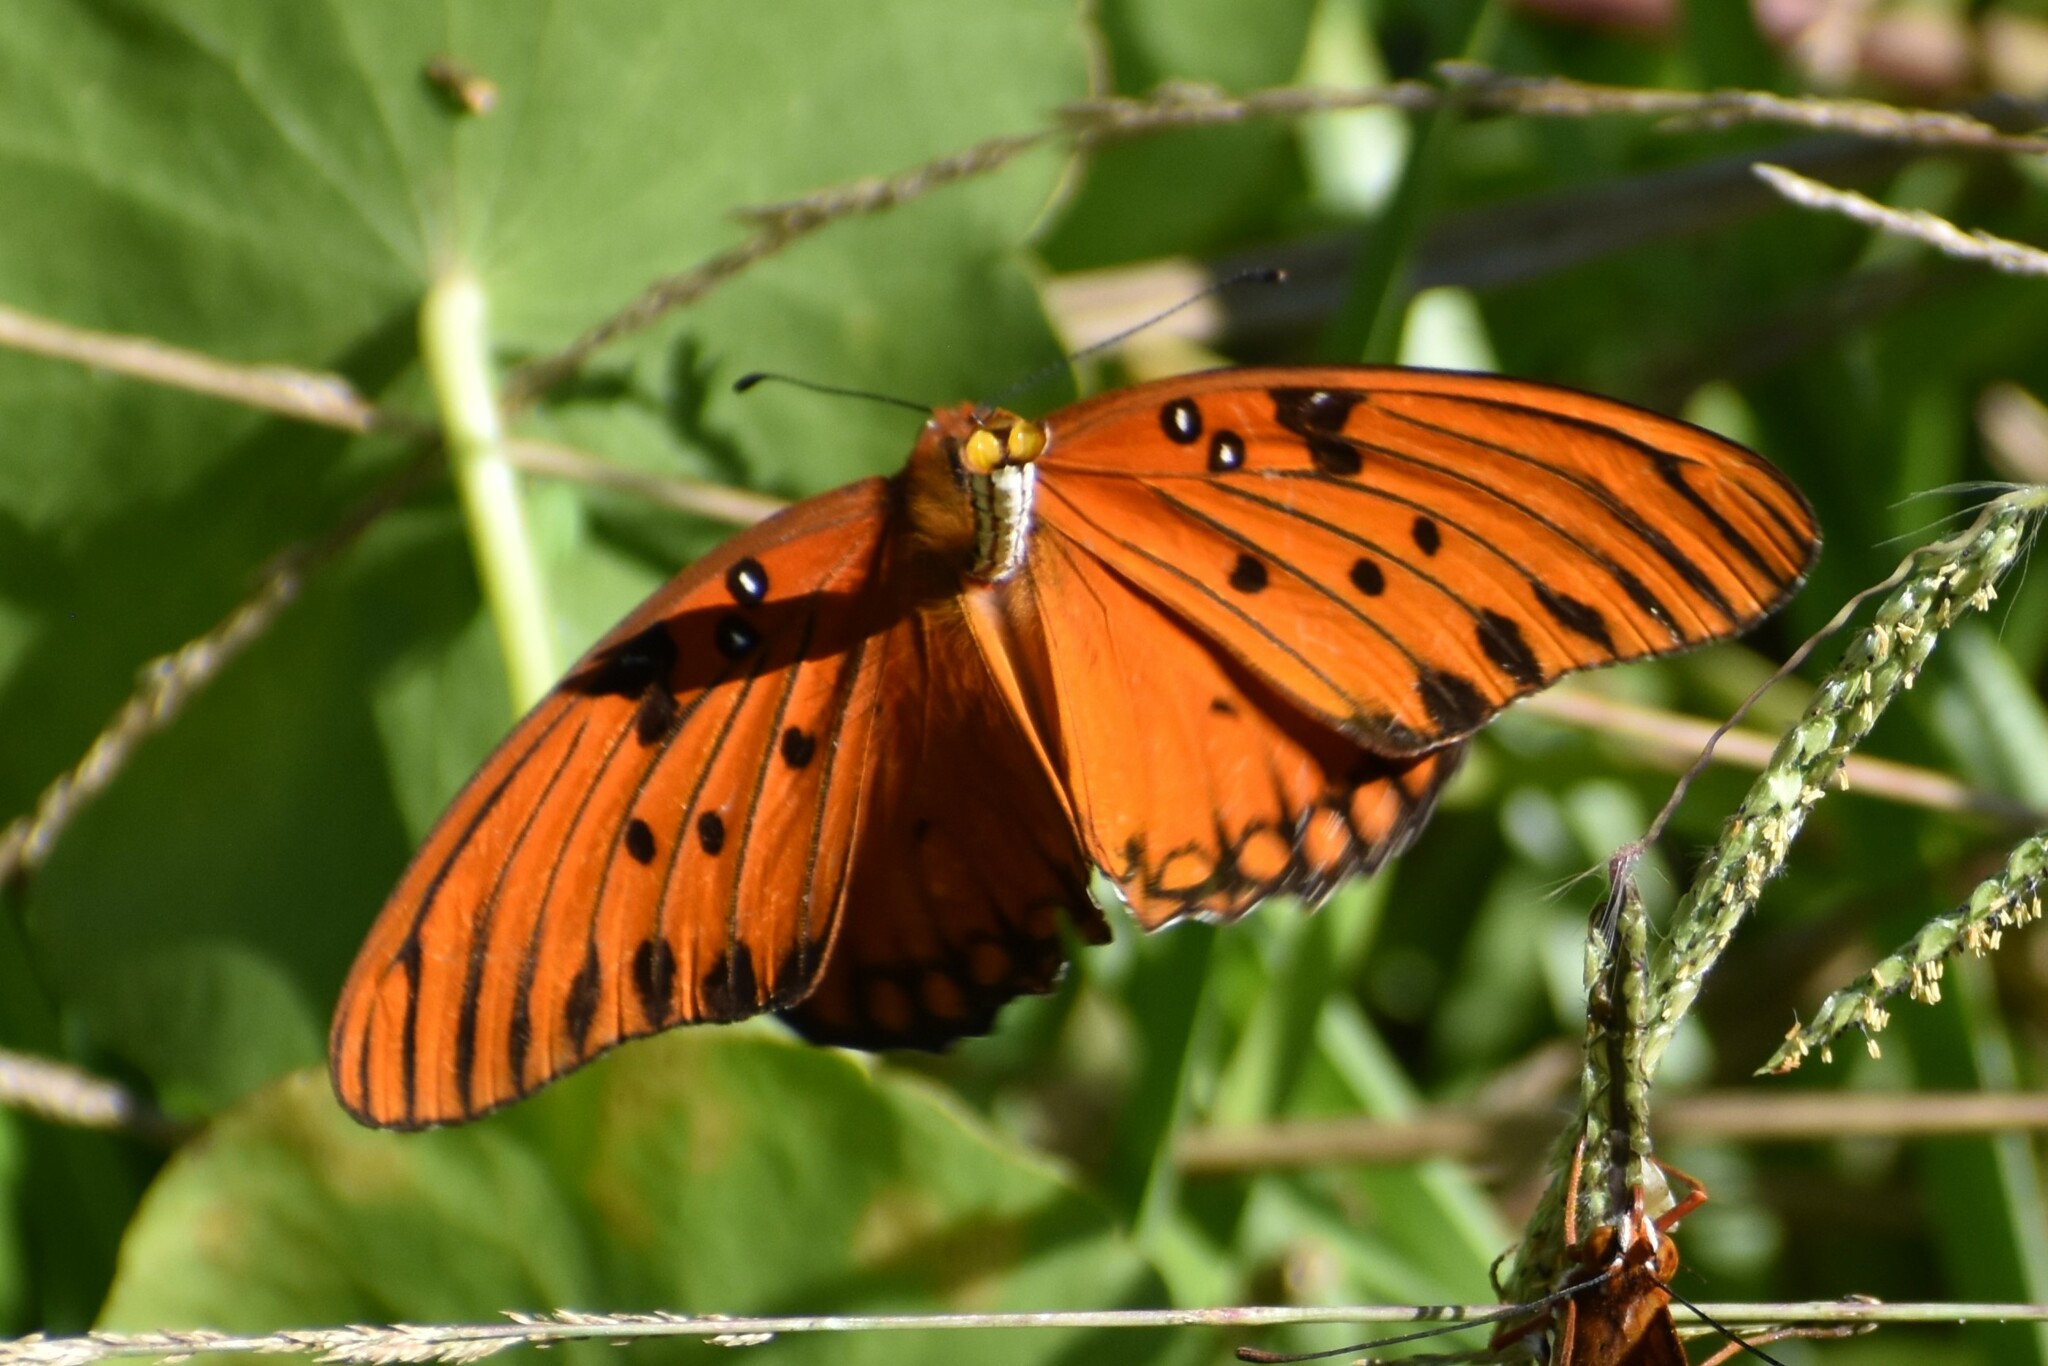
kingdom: Animalia
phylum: Arthropoda
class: Insecta
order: Lepidoptera
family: Nymphalidae
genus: Dione
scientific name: Dione vanillae
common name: Gulf fritillary
